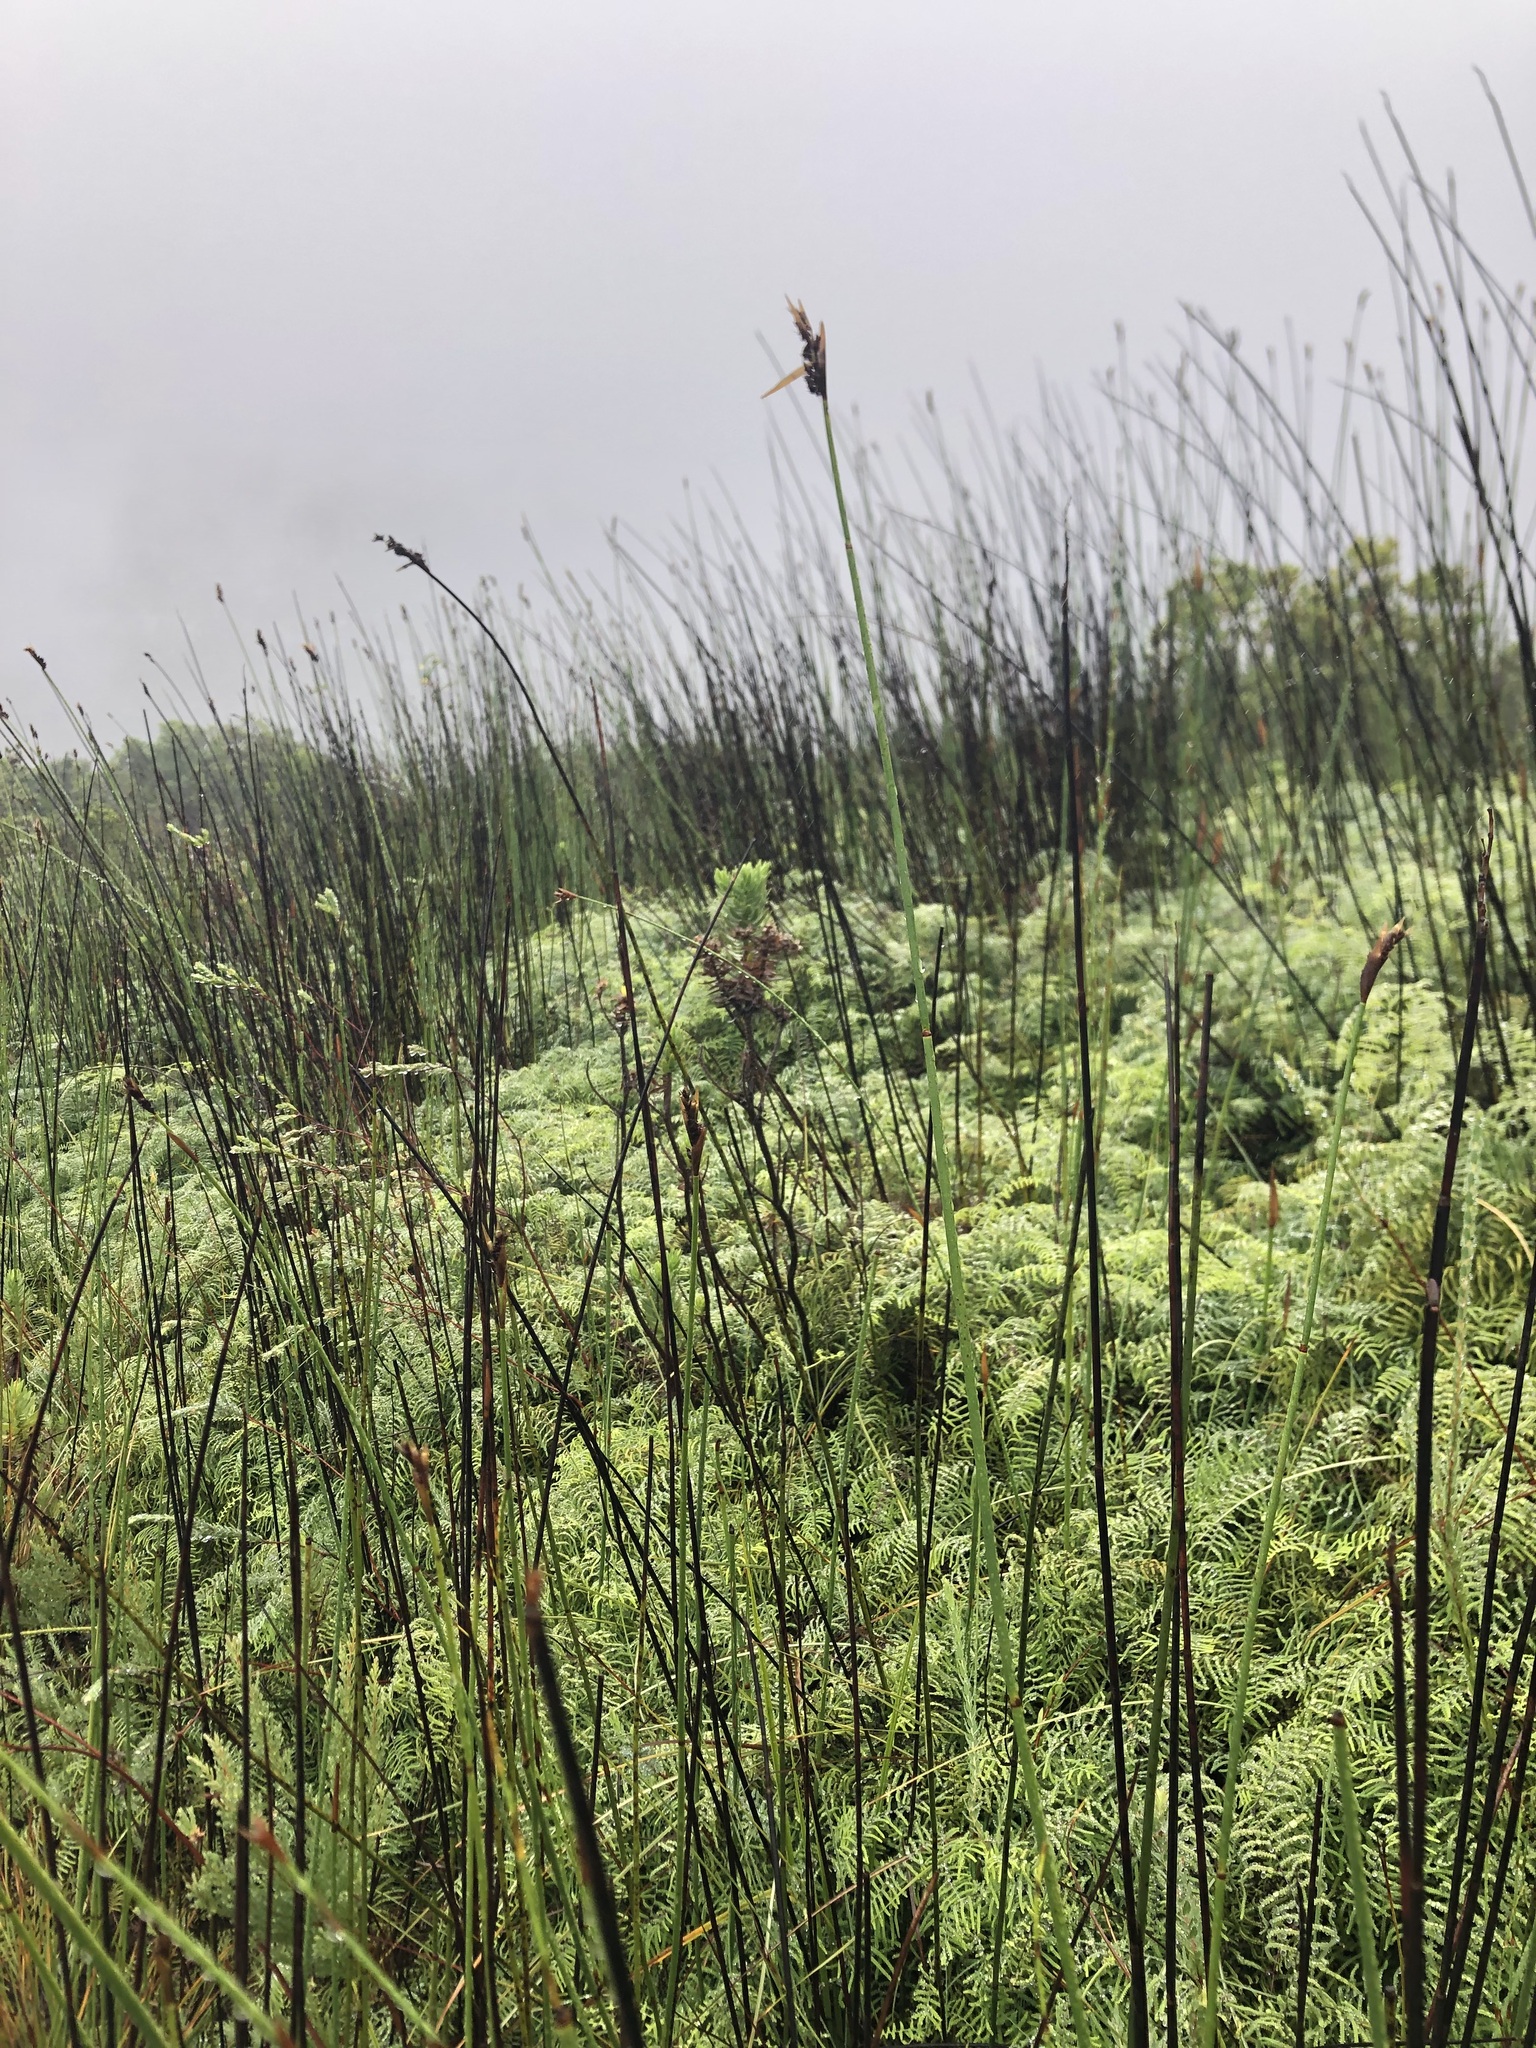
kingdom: Plantae
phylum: Tracheophyta
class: Liliopsida
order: Poales
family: Restionaceae
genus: Elegia
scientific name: Elegia thyrsifera
